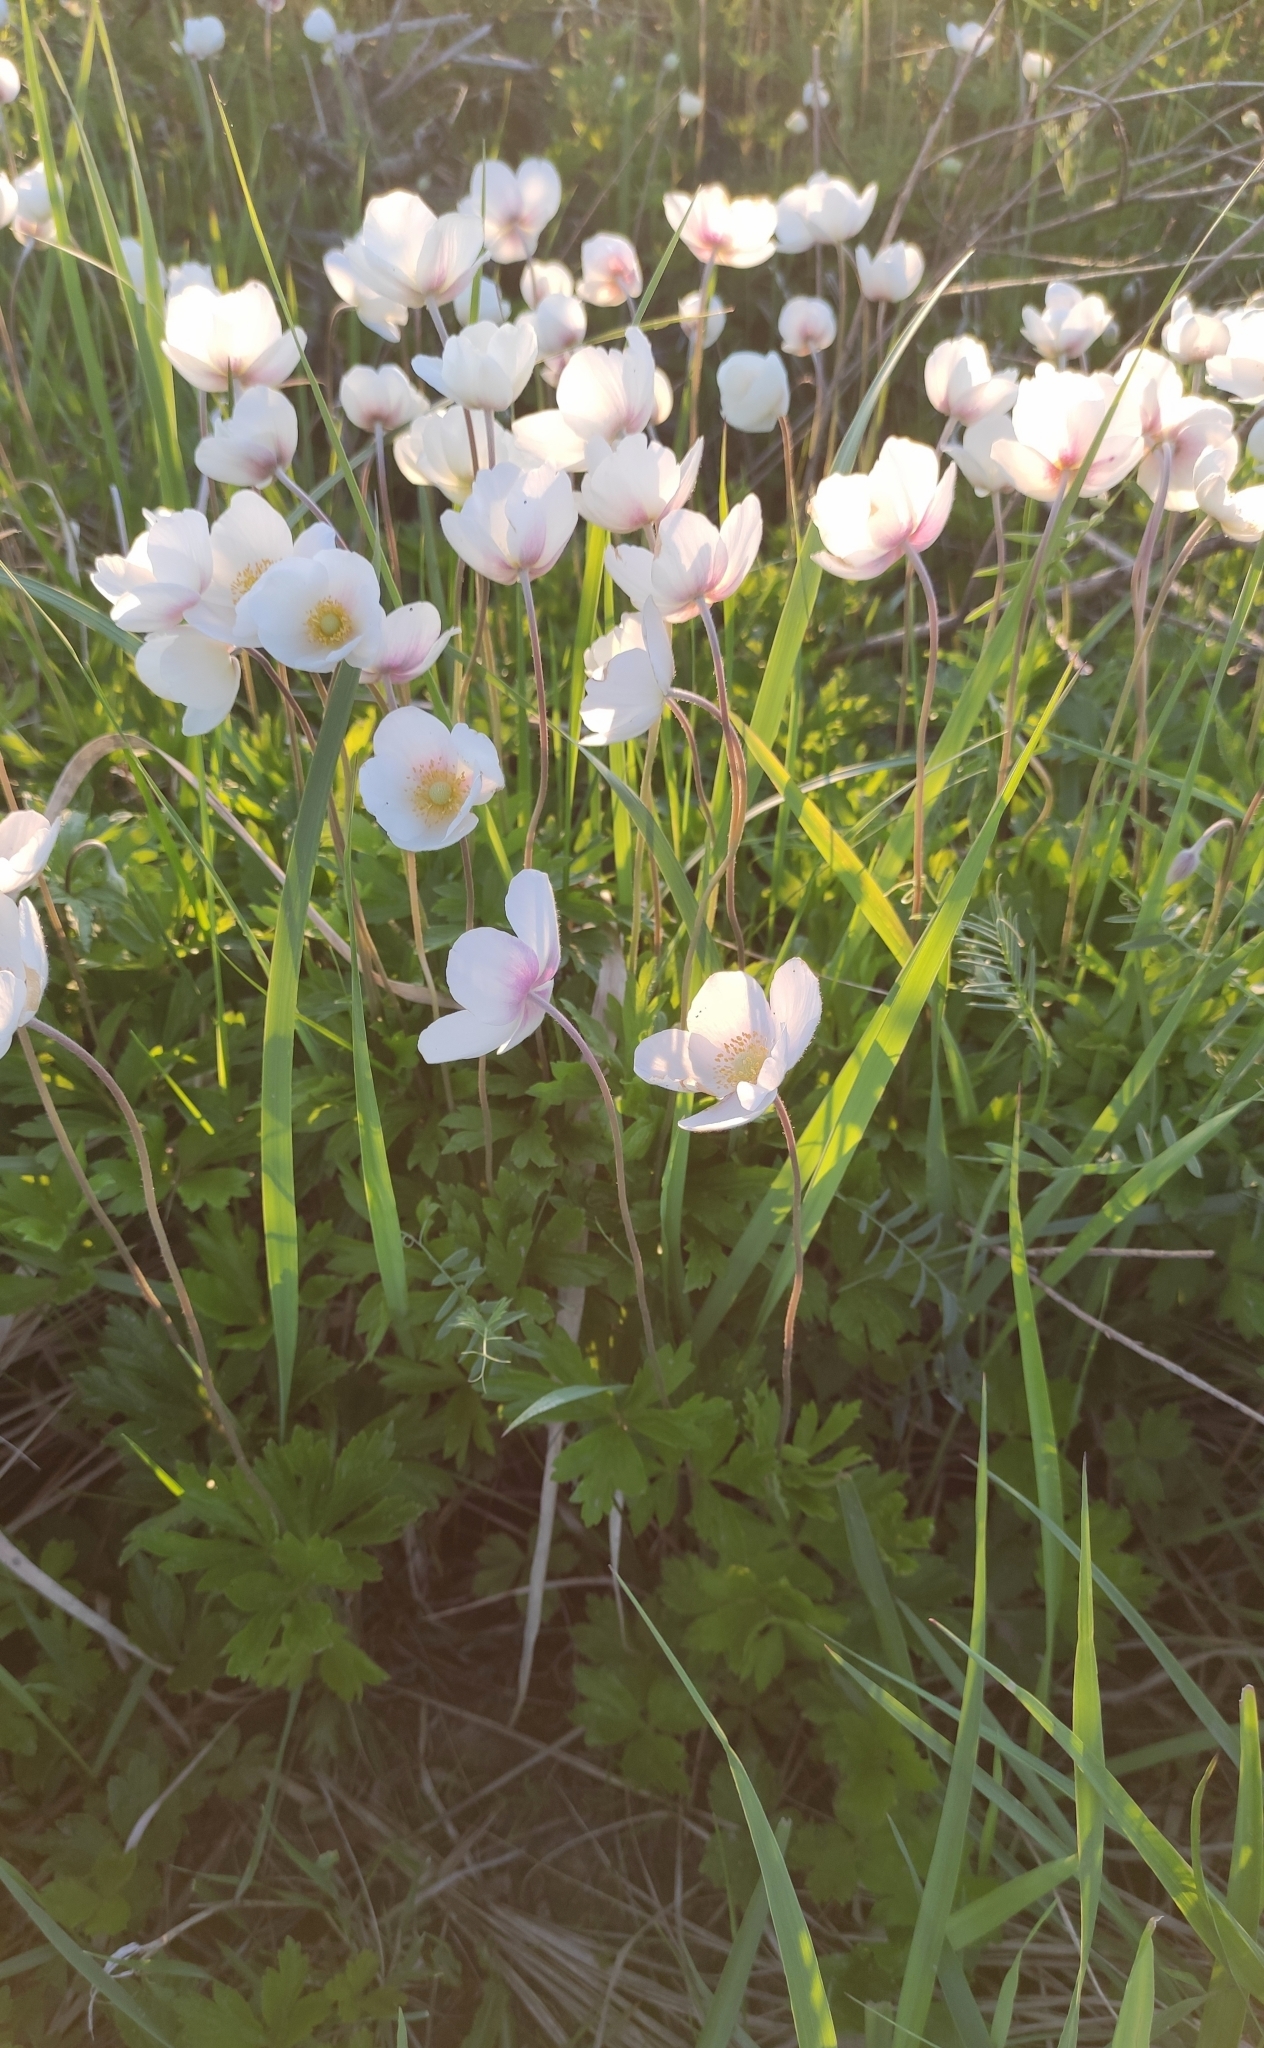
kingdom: Plantae
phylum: Tracheophyta
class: Magnoliopsida
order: Ranunculales
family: Ranunculaceae
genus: Anemone
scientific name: Anemone sylvestris
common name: Snowdrop anemone
